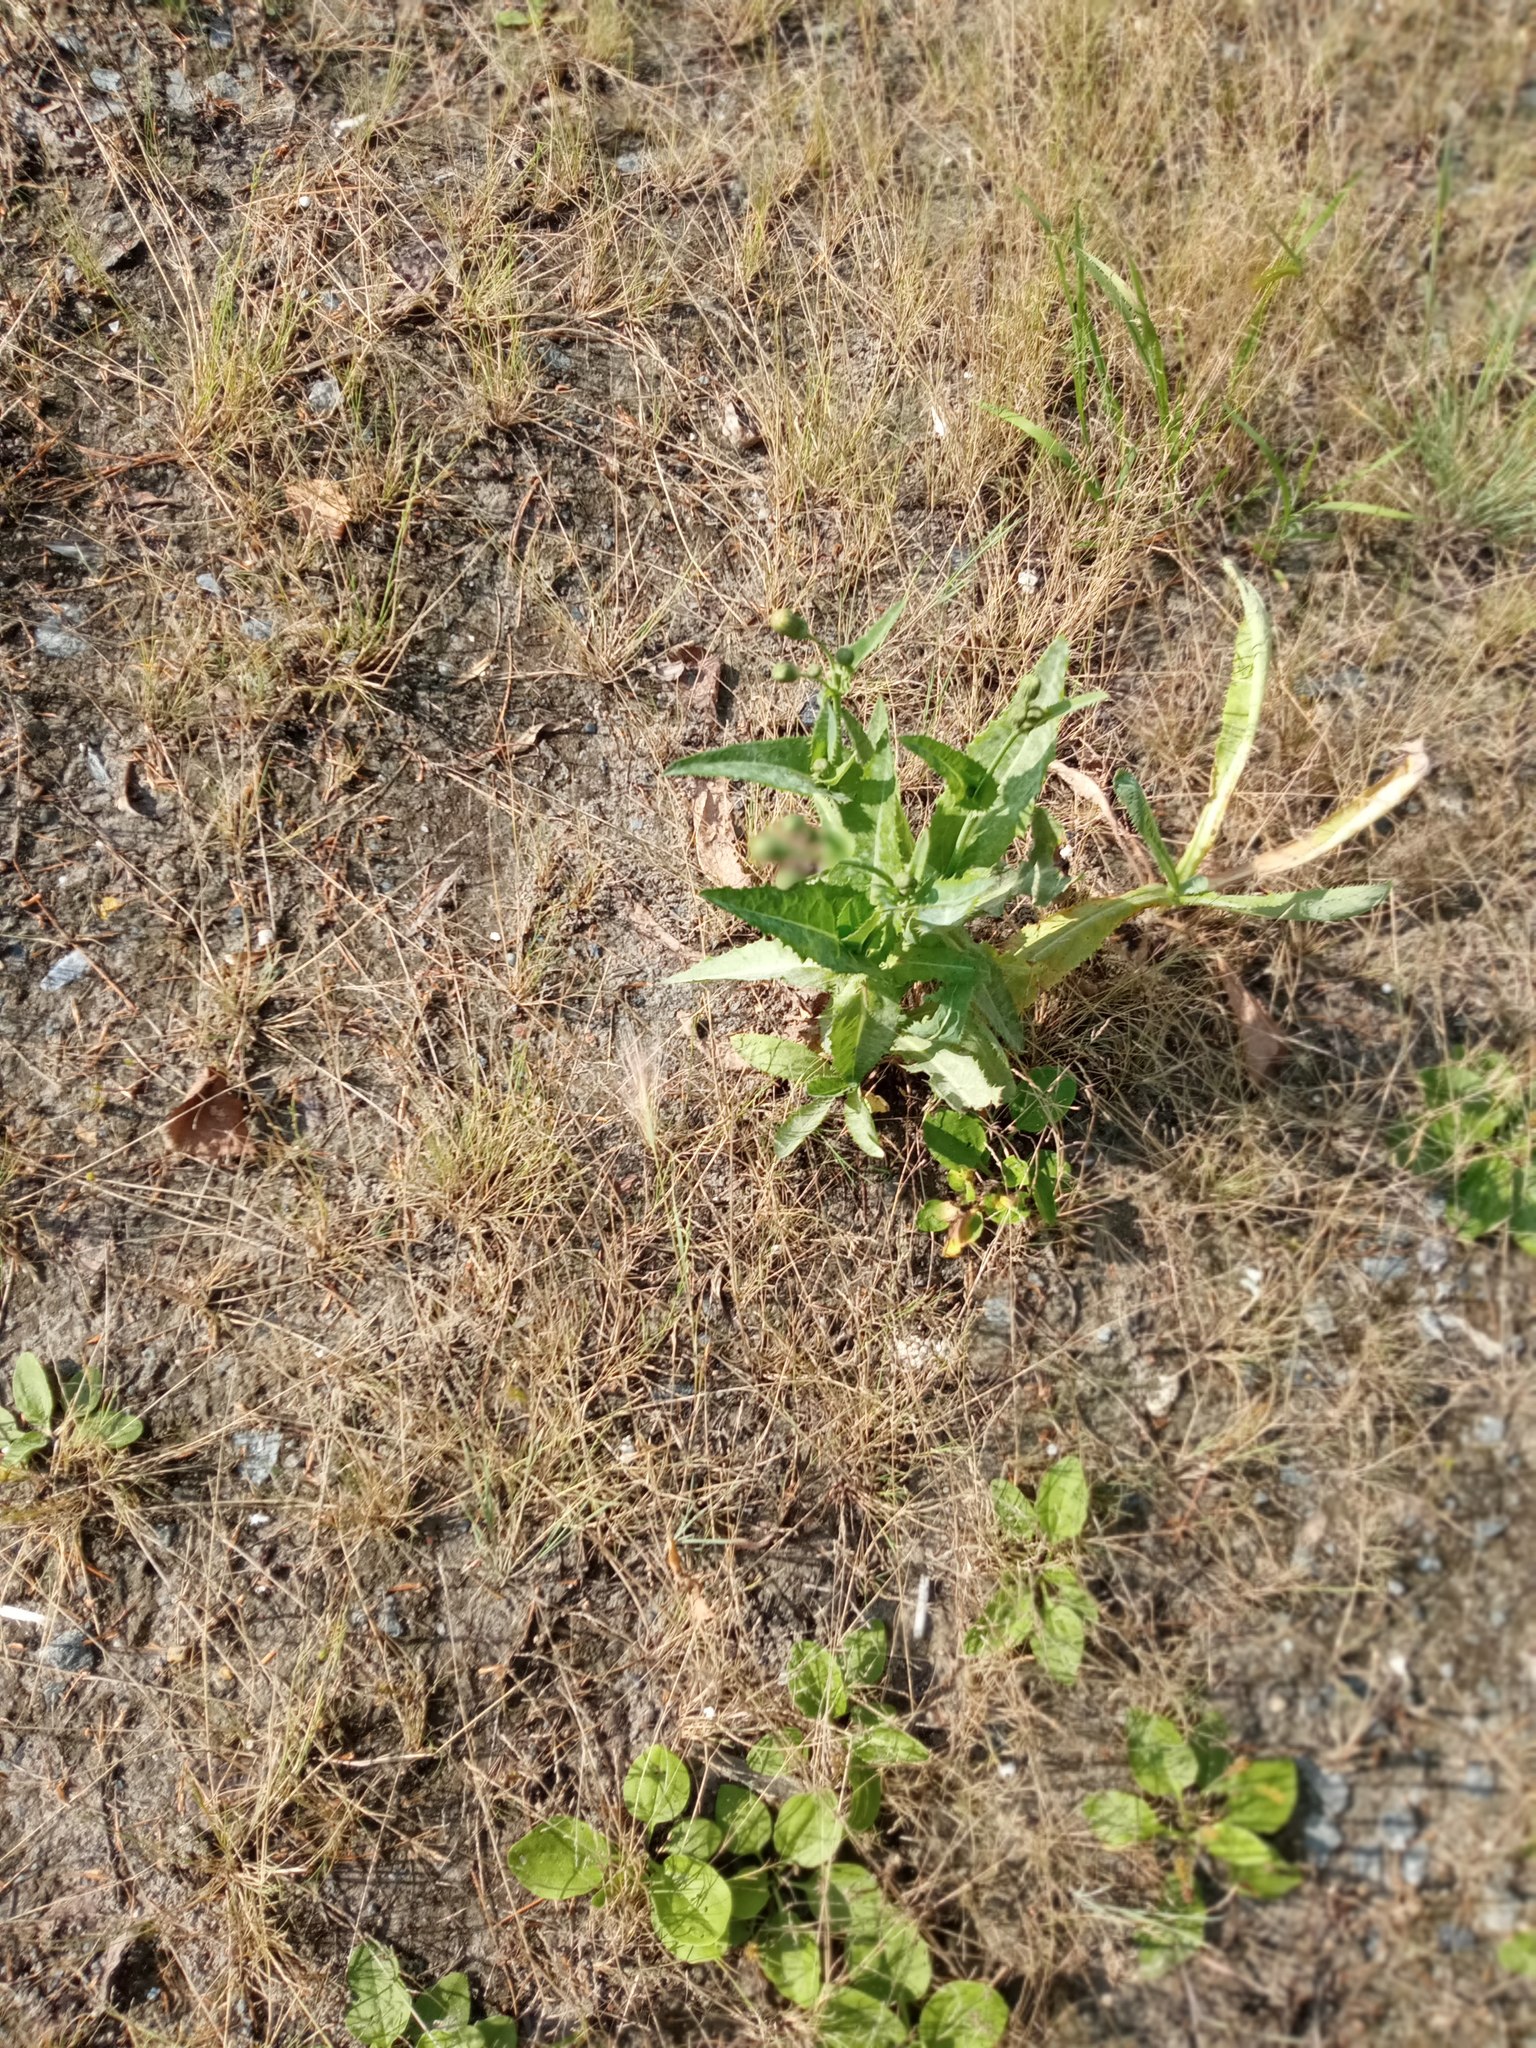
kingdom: Plantae
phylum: Tracheophyta
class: Magnoliopsida
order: Asterales
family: Asteraceae
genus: Sonchus
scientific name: Sonchus arvensis
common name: Perennial sow-thistle
